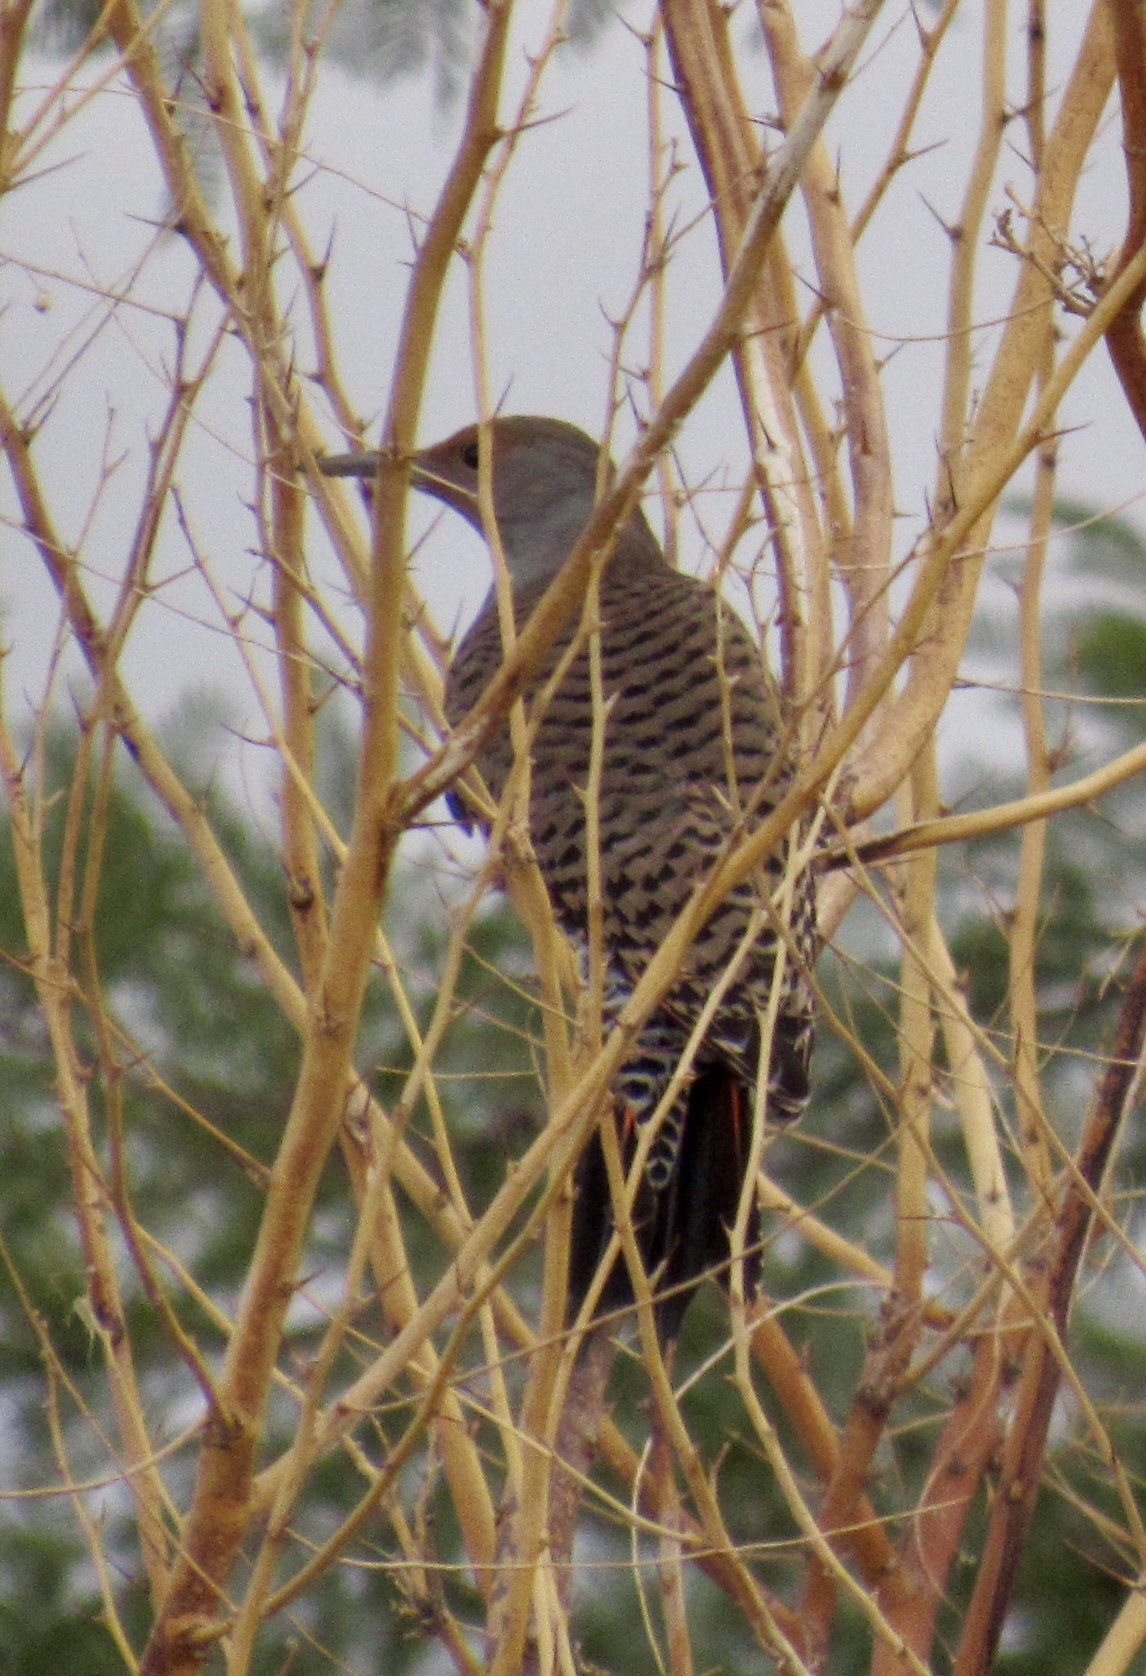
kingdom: Animalia
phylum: Chordata
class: Aves
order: Piciformes
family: Picidae
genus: Colaptes
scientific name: Colaptes auratus
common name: Northern flicker
